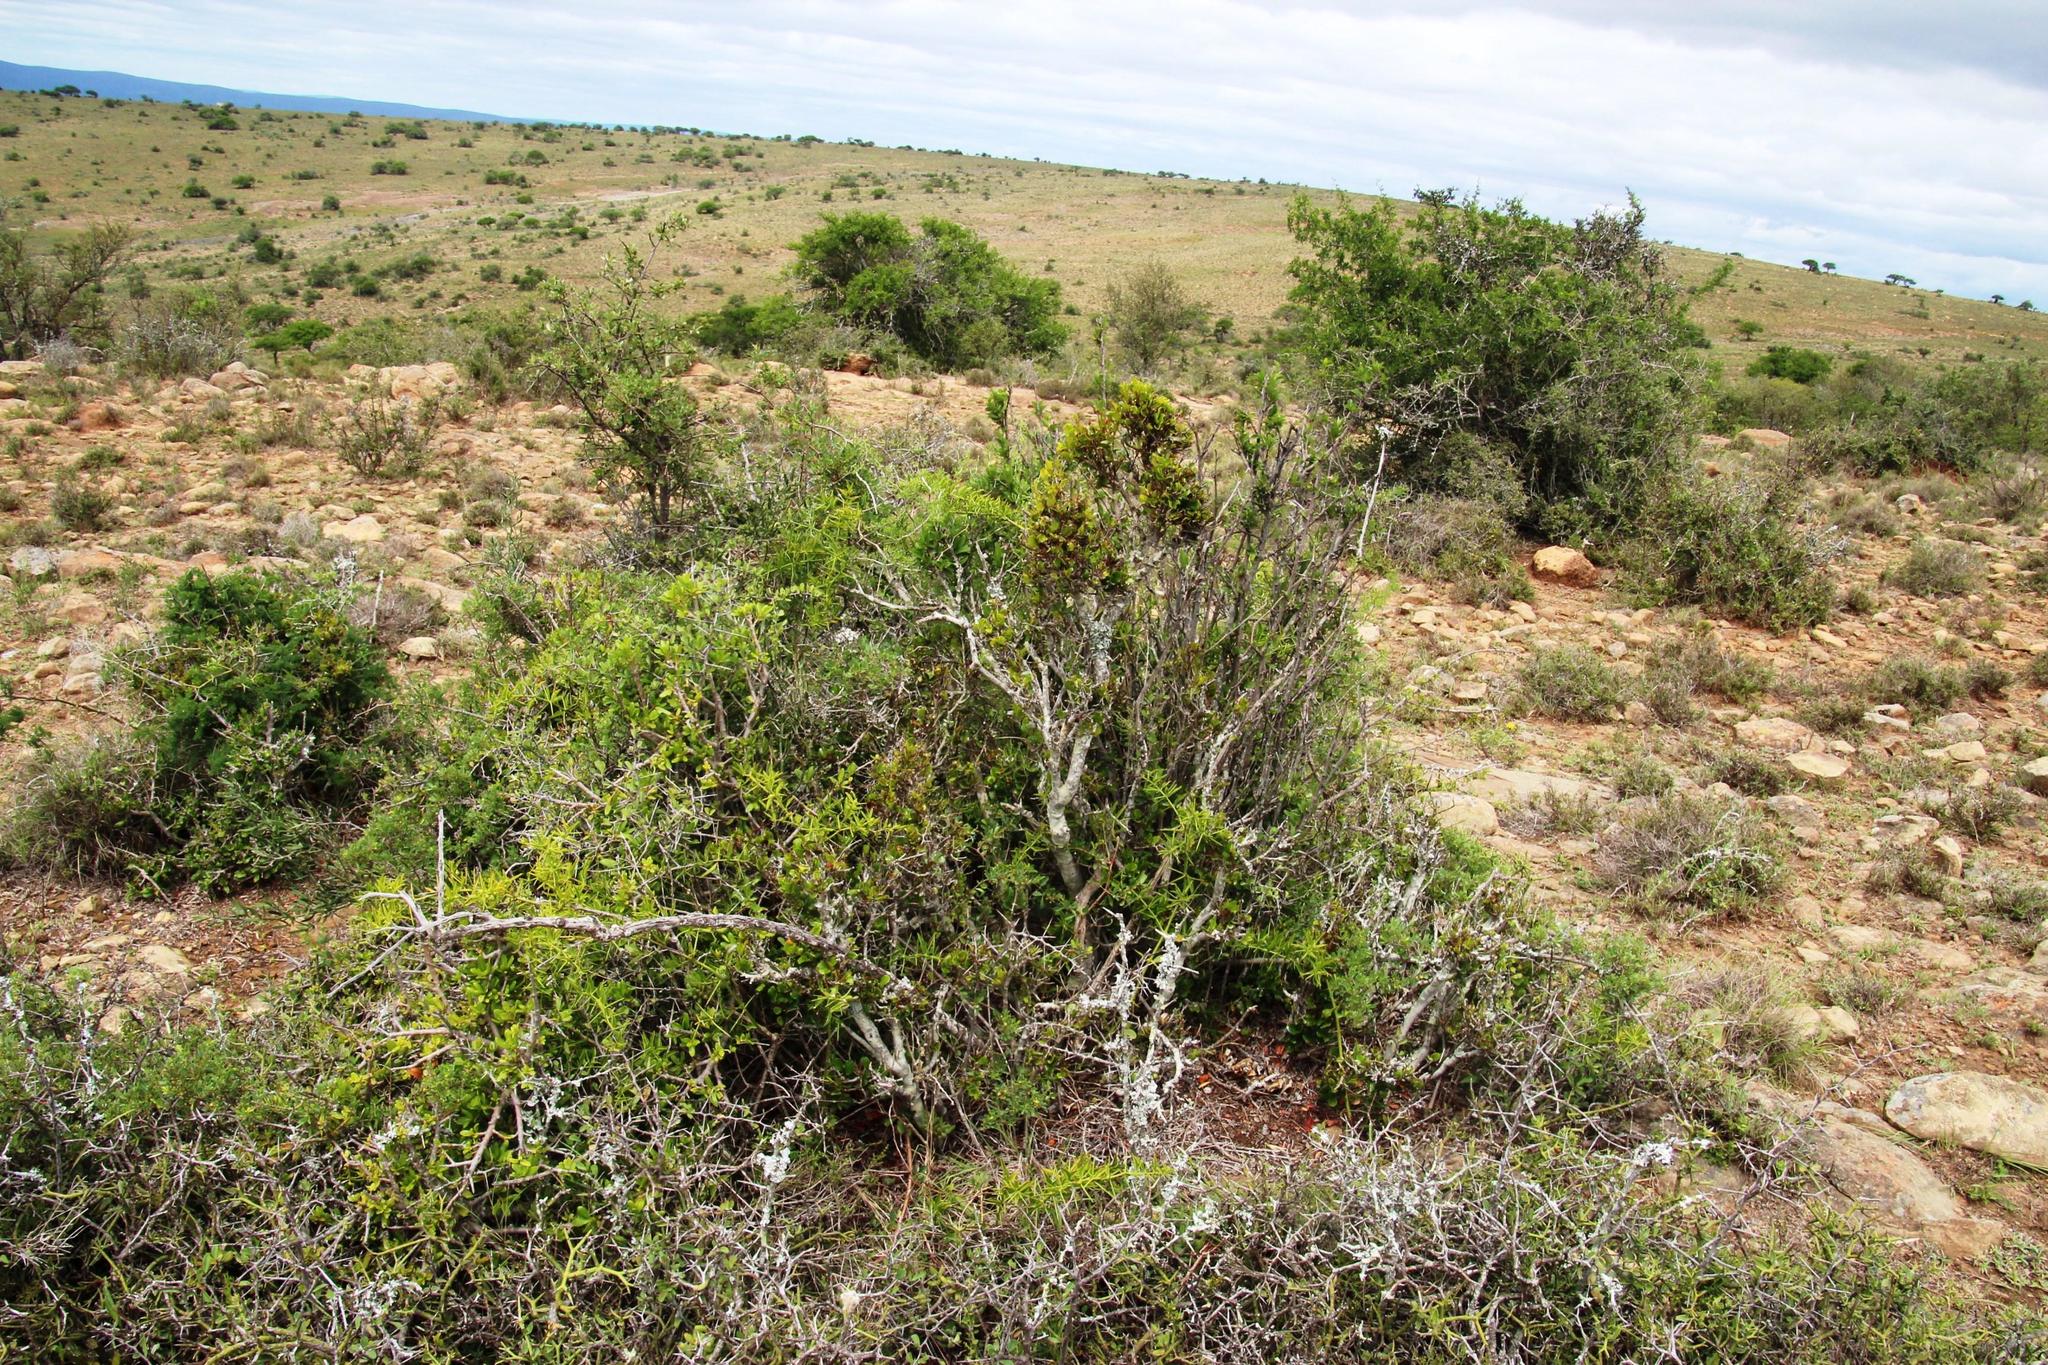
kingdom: Plantae
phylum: Tracheophyta
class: Magnoliopsida
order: Ericales
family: Ebenaceae
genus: Diospyros
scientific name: Diospyros scabrida
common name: Coastal bladder-nut
